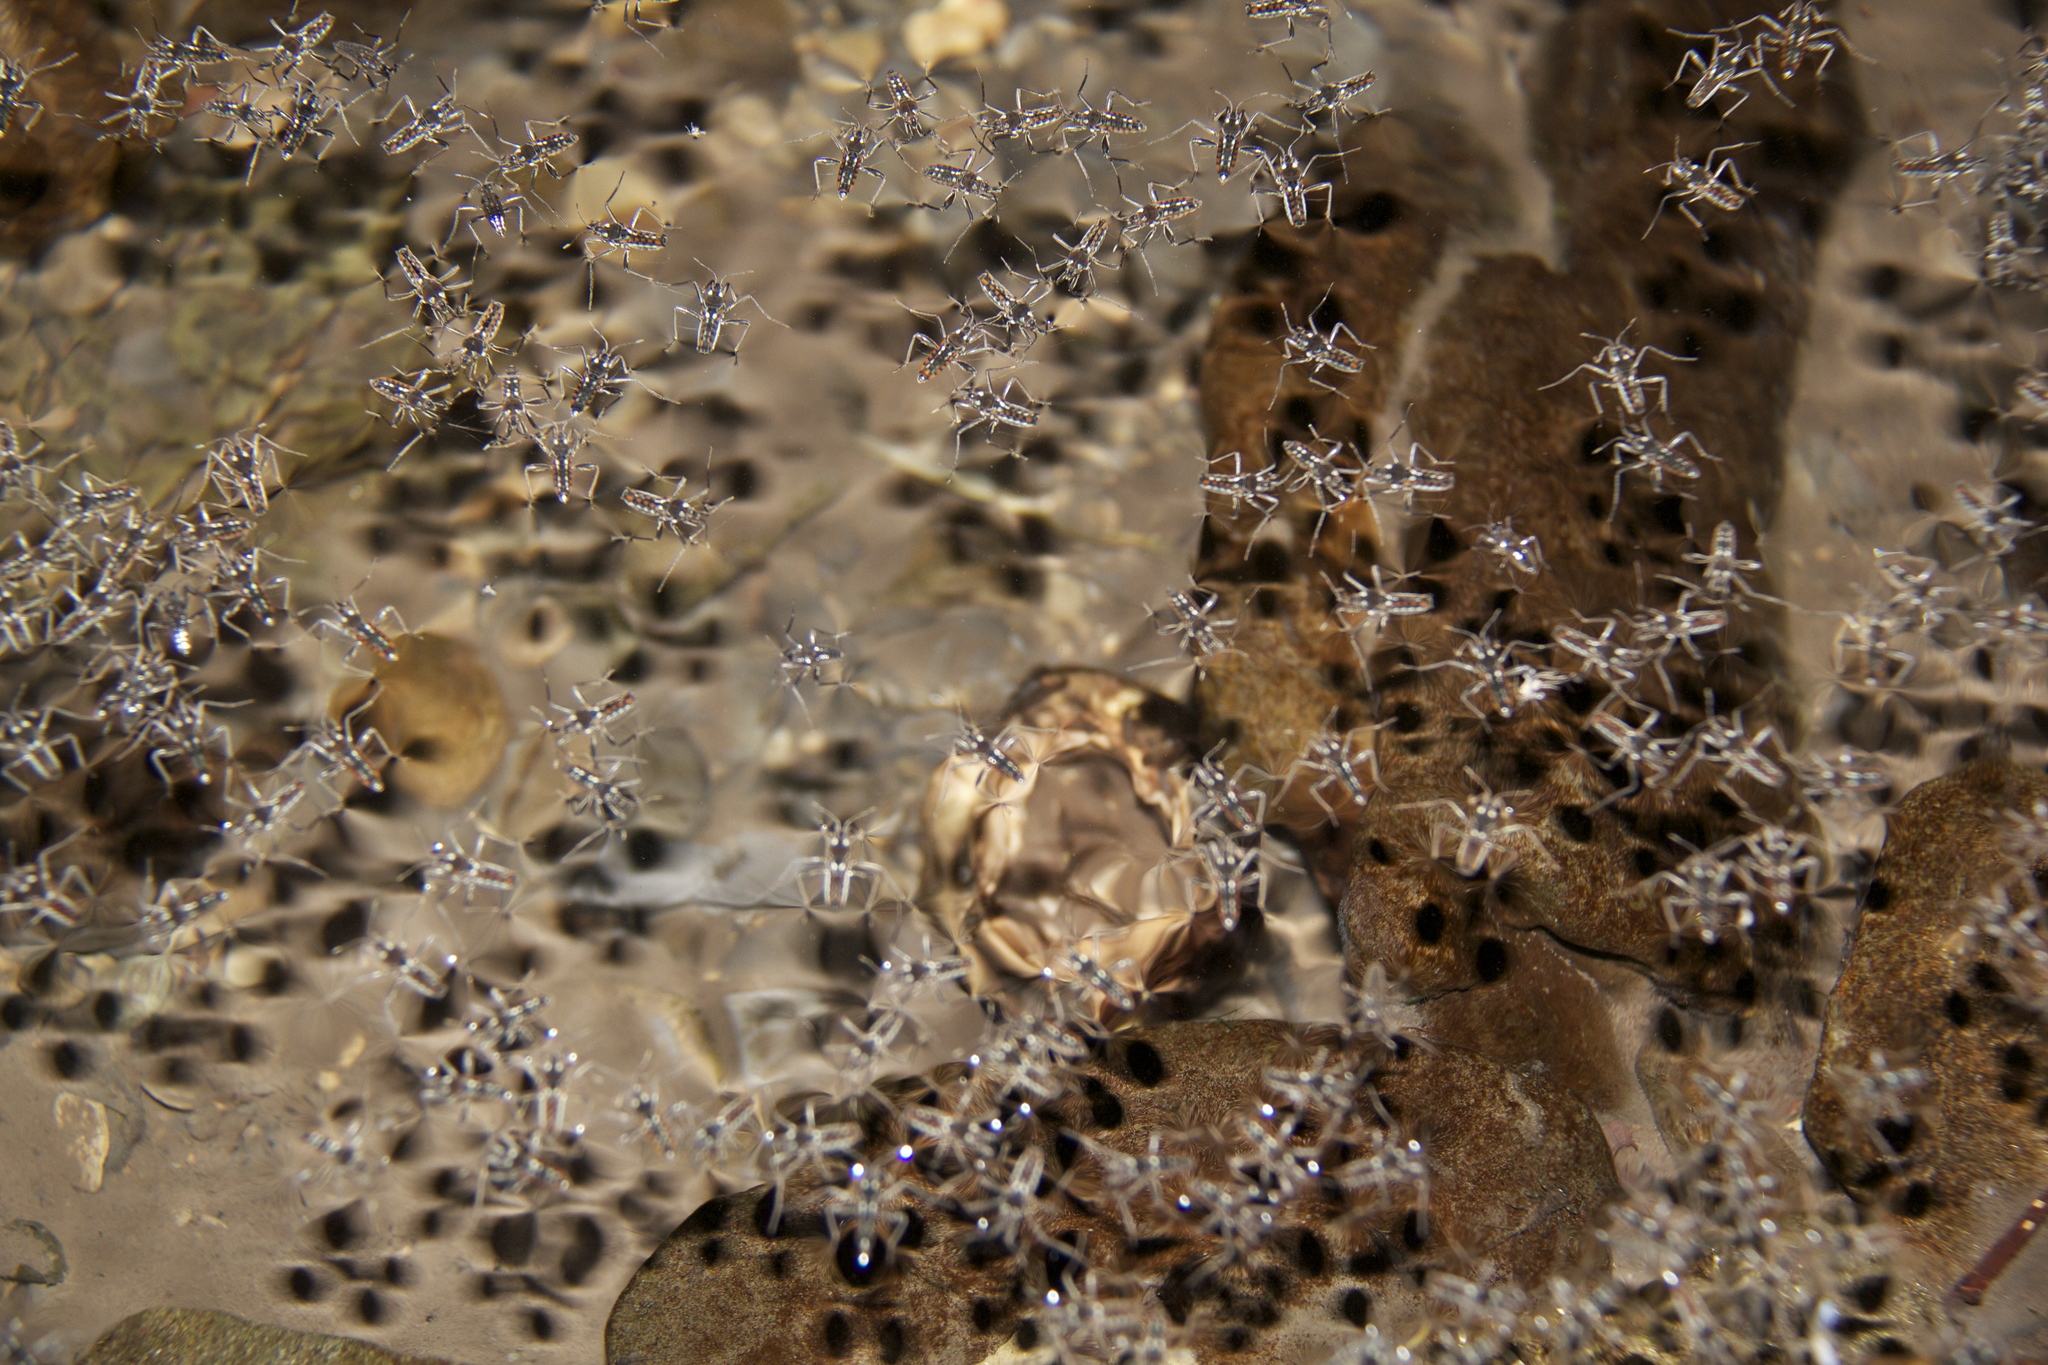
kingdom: Animalia
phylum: Arthropoda
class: Insecta
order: Hemiptera
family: Veliidae
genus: Velia
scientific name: Velia gridellii
